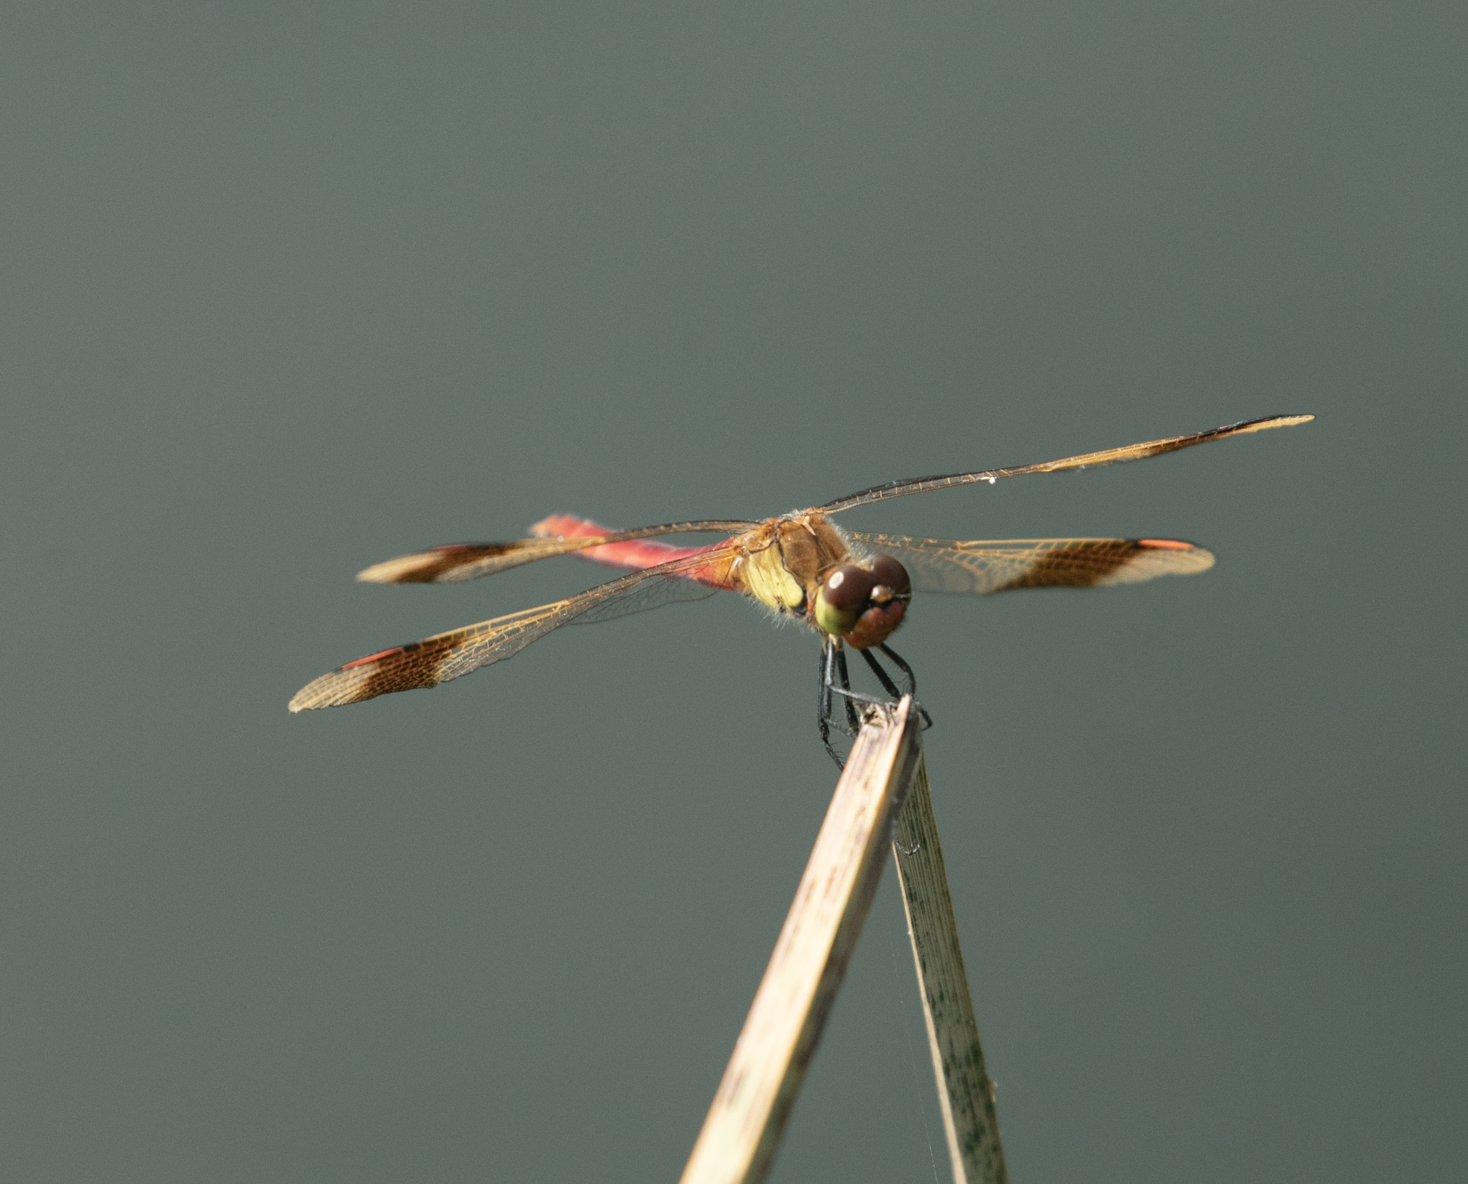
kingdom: Animalia
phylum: Arthropoda
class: Insecta
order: Odonata
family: Libellulidae
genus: Sympetrum
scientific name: Sympetrum pedemontanum
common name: Banded darter
